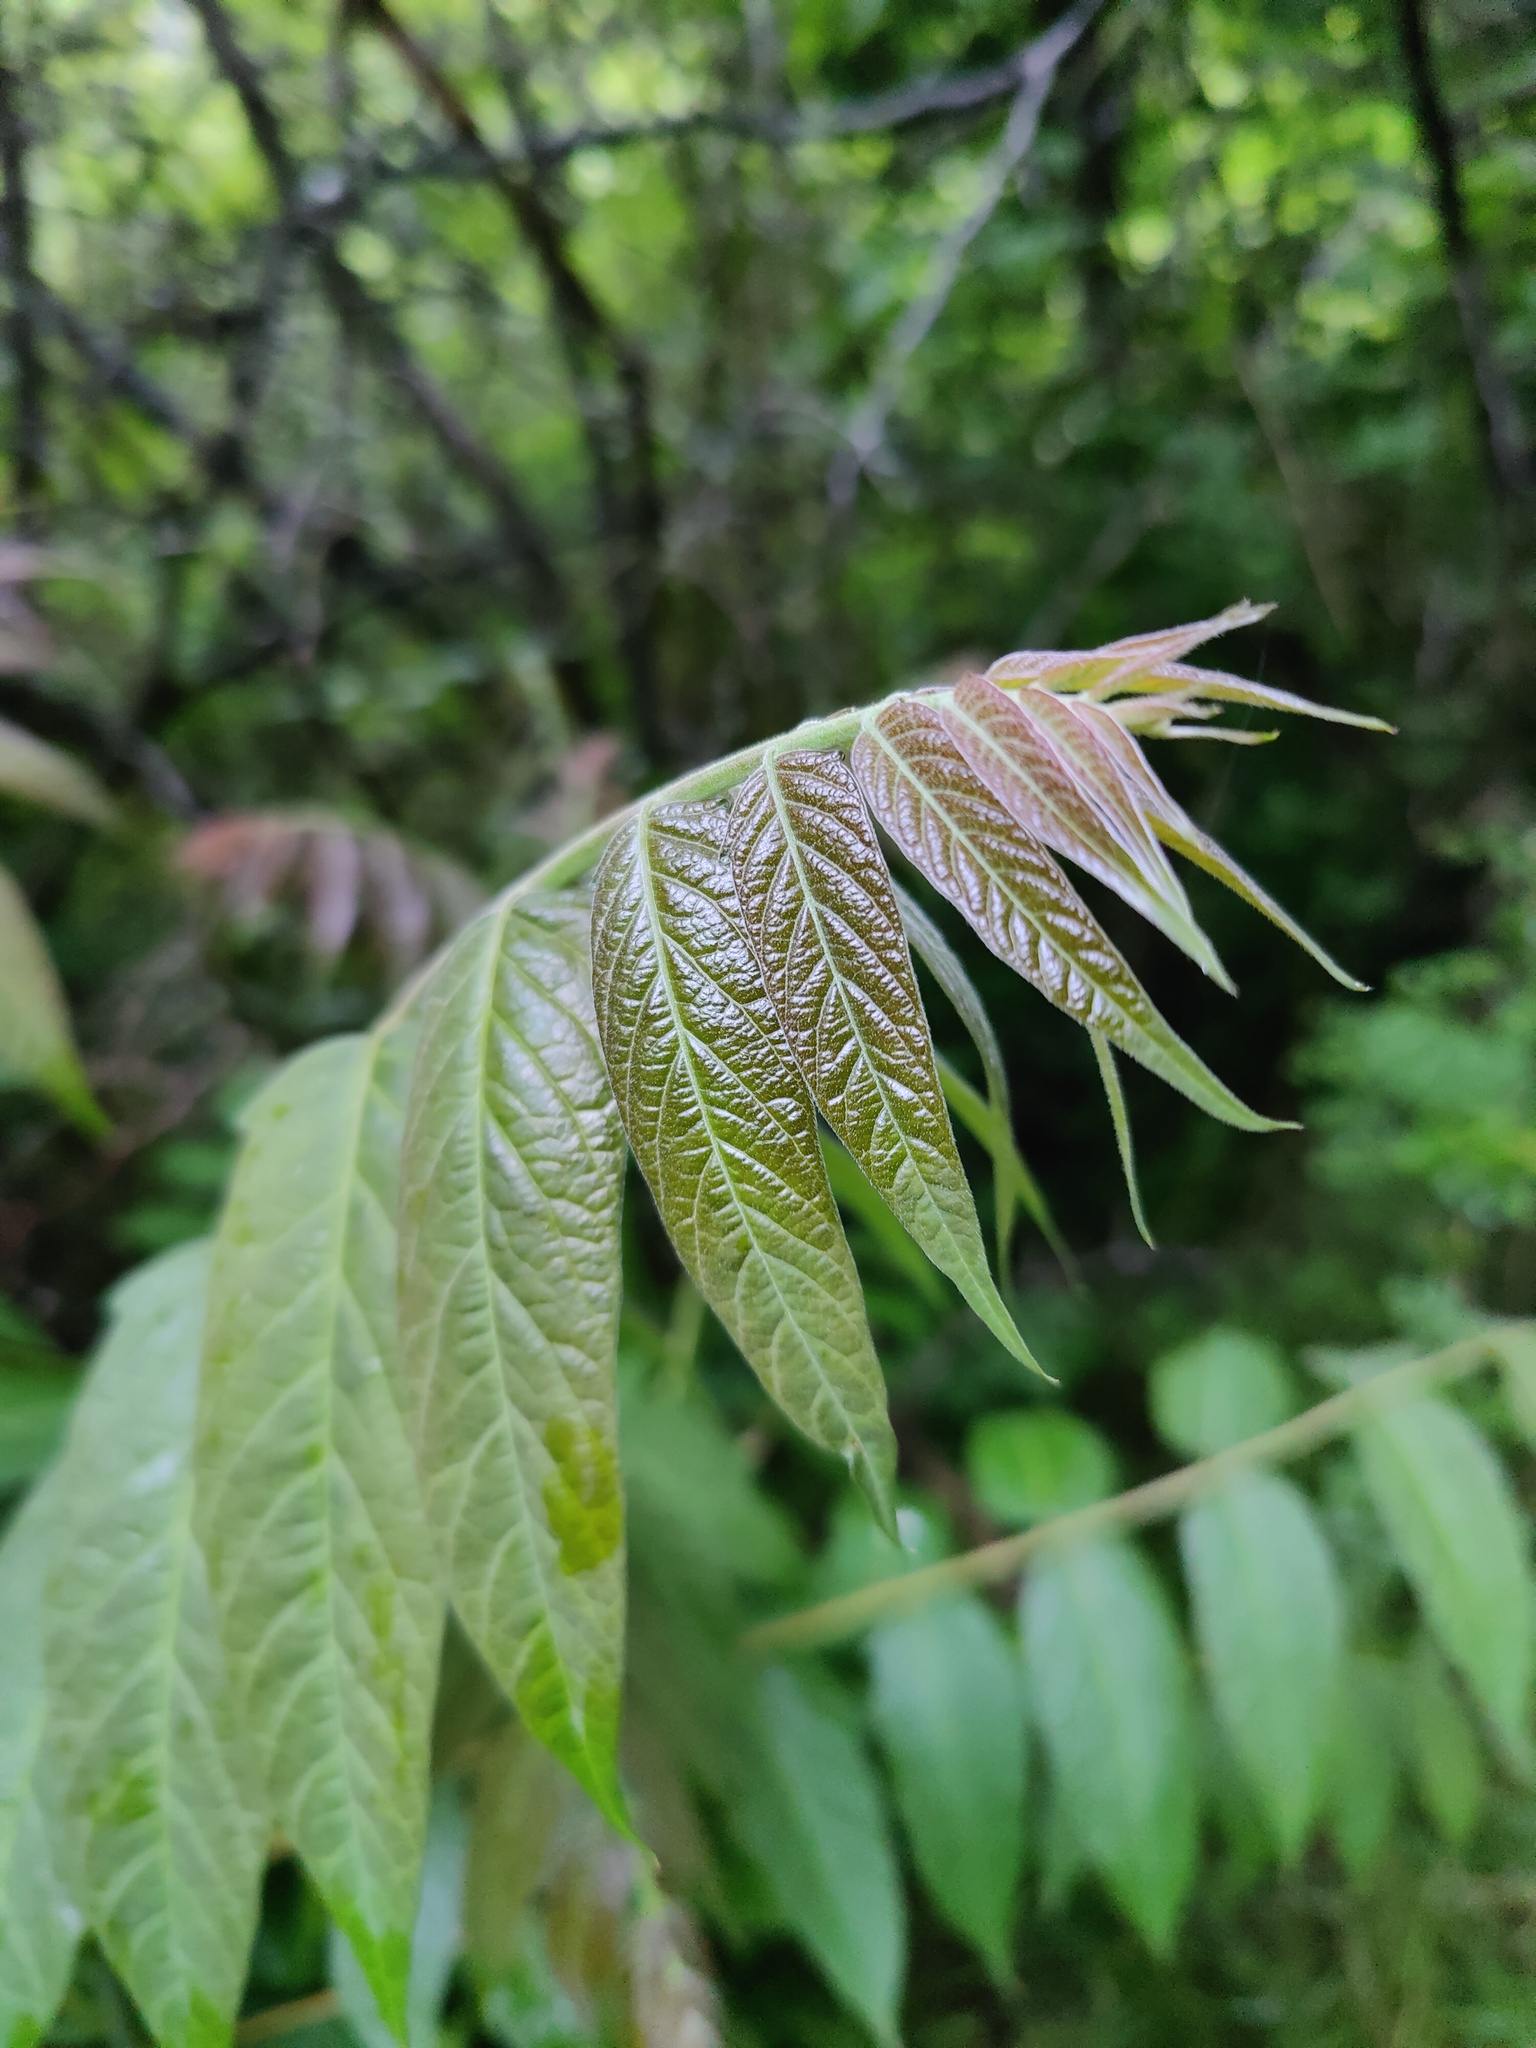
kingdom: Plantae
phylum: Tracheophyta
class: Magnoliopsida
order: Sapindales
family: Simaroubaceae
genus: Ailanthus
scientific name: Ailanthus altissima
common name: Tree-of-heaven
